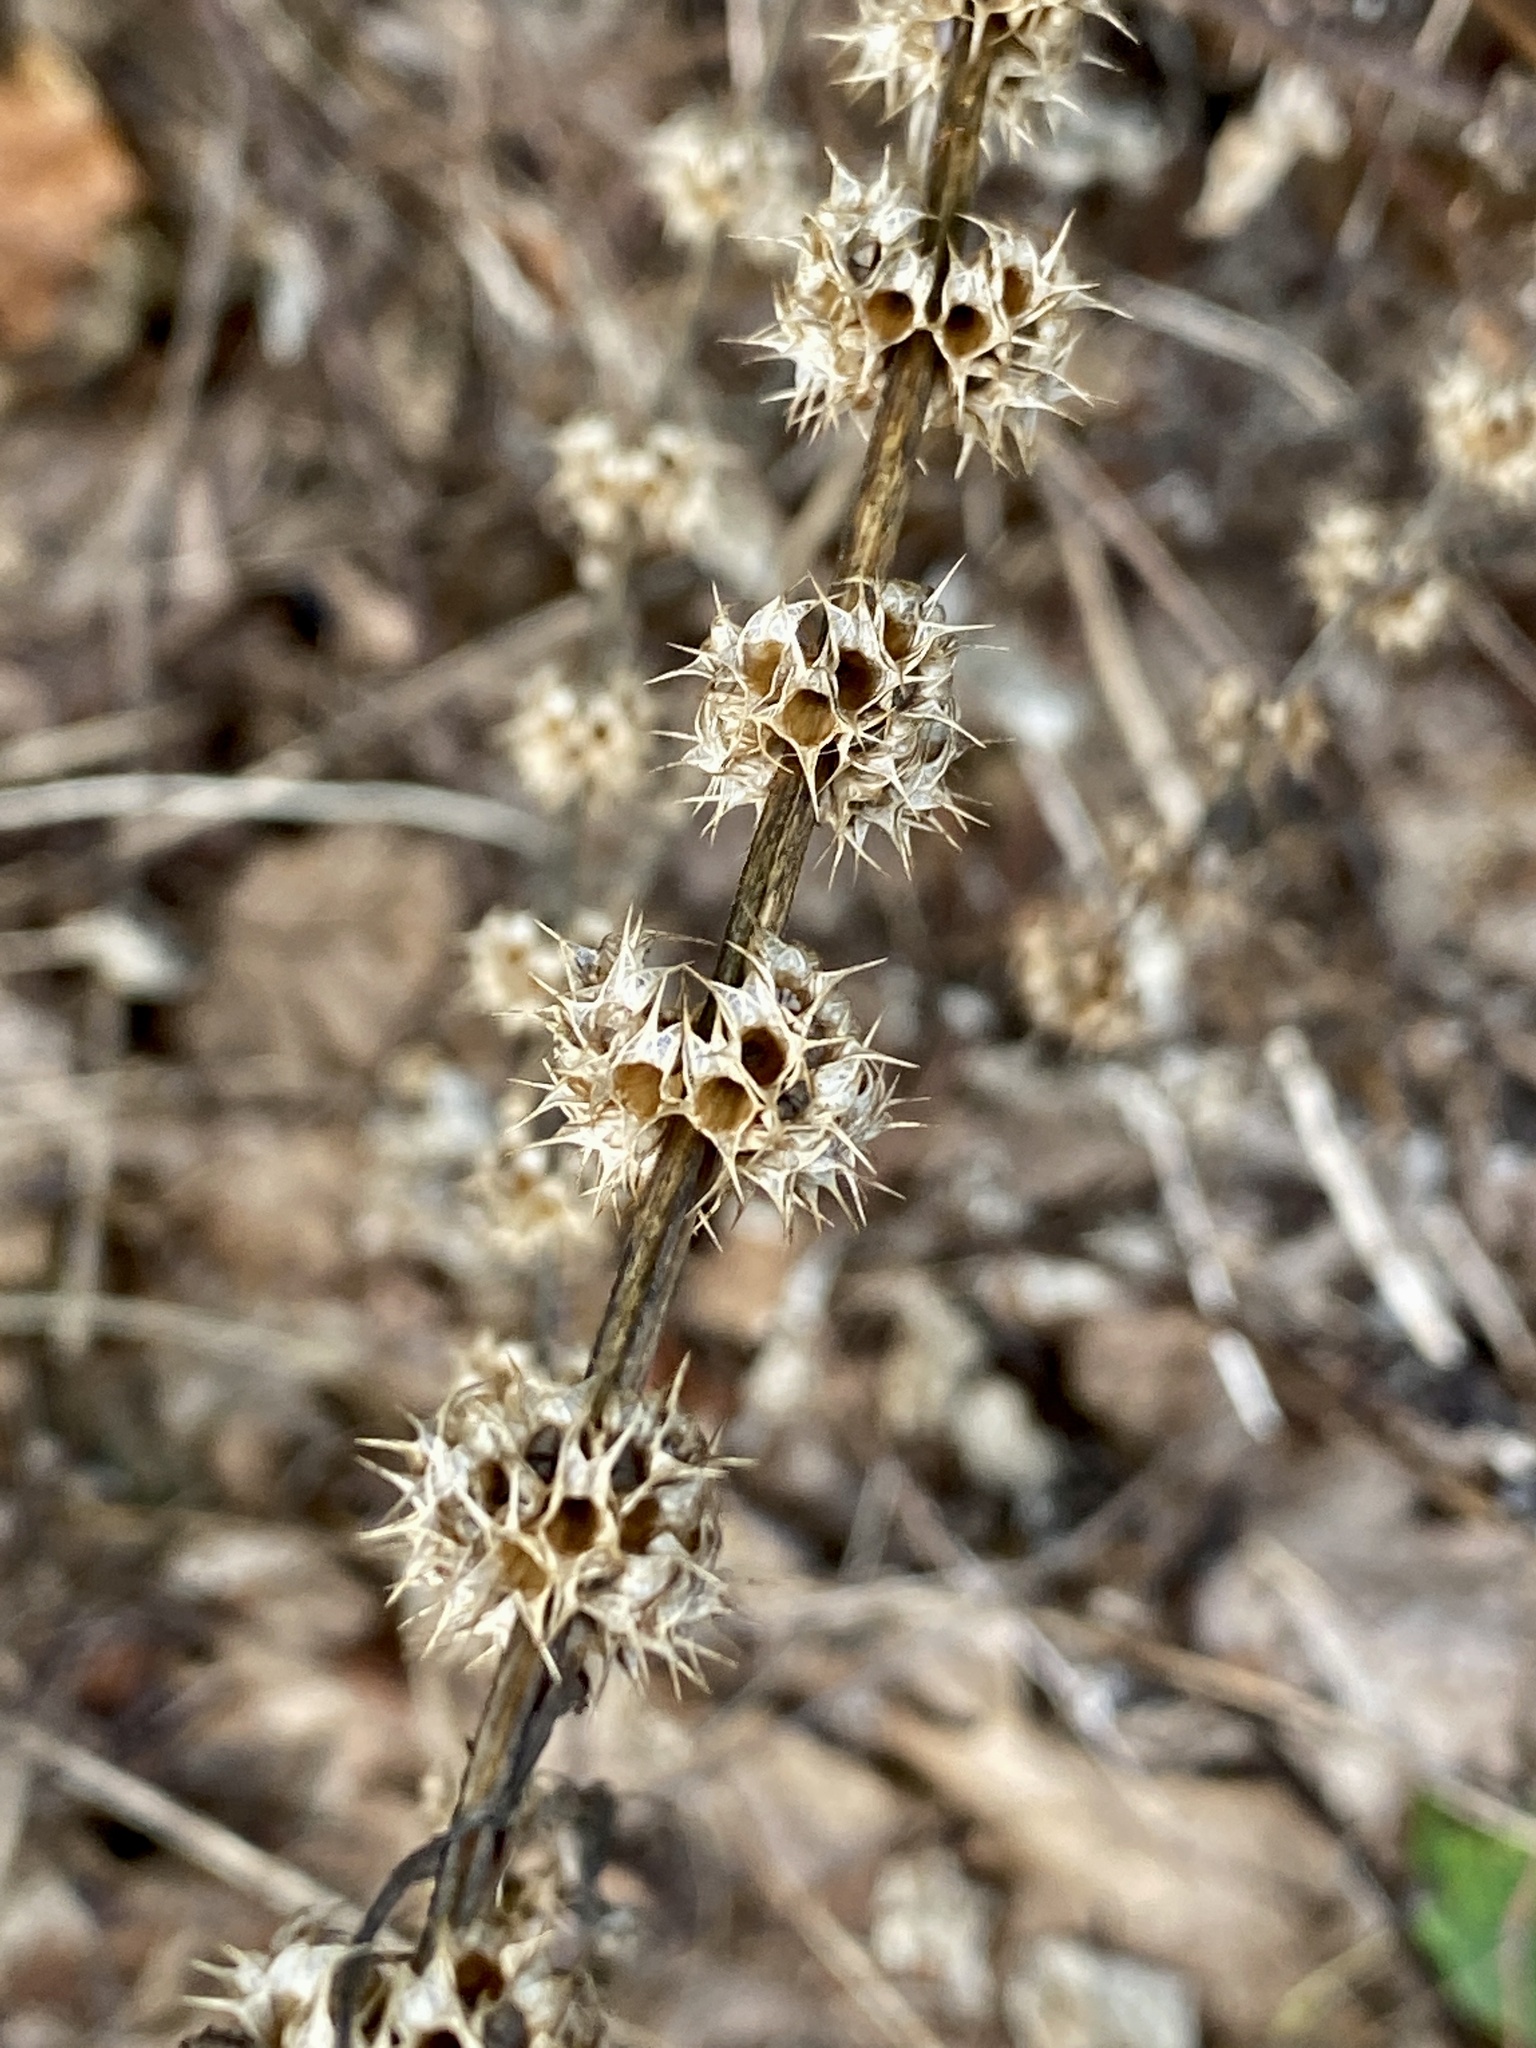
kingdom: Plantae
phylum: Tracheophyta
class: Magnoliopsida
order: Lamiales
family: Lamiaceae
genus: Leonurus
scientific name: Leonurus cardiaca
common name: Motherwort
